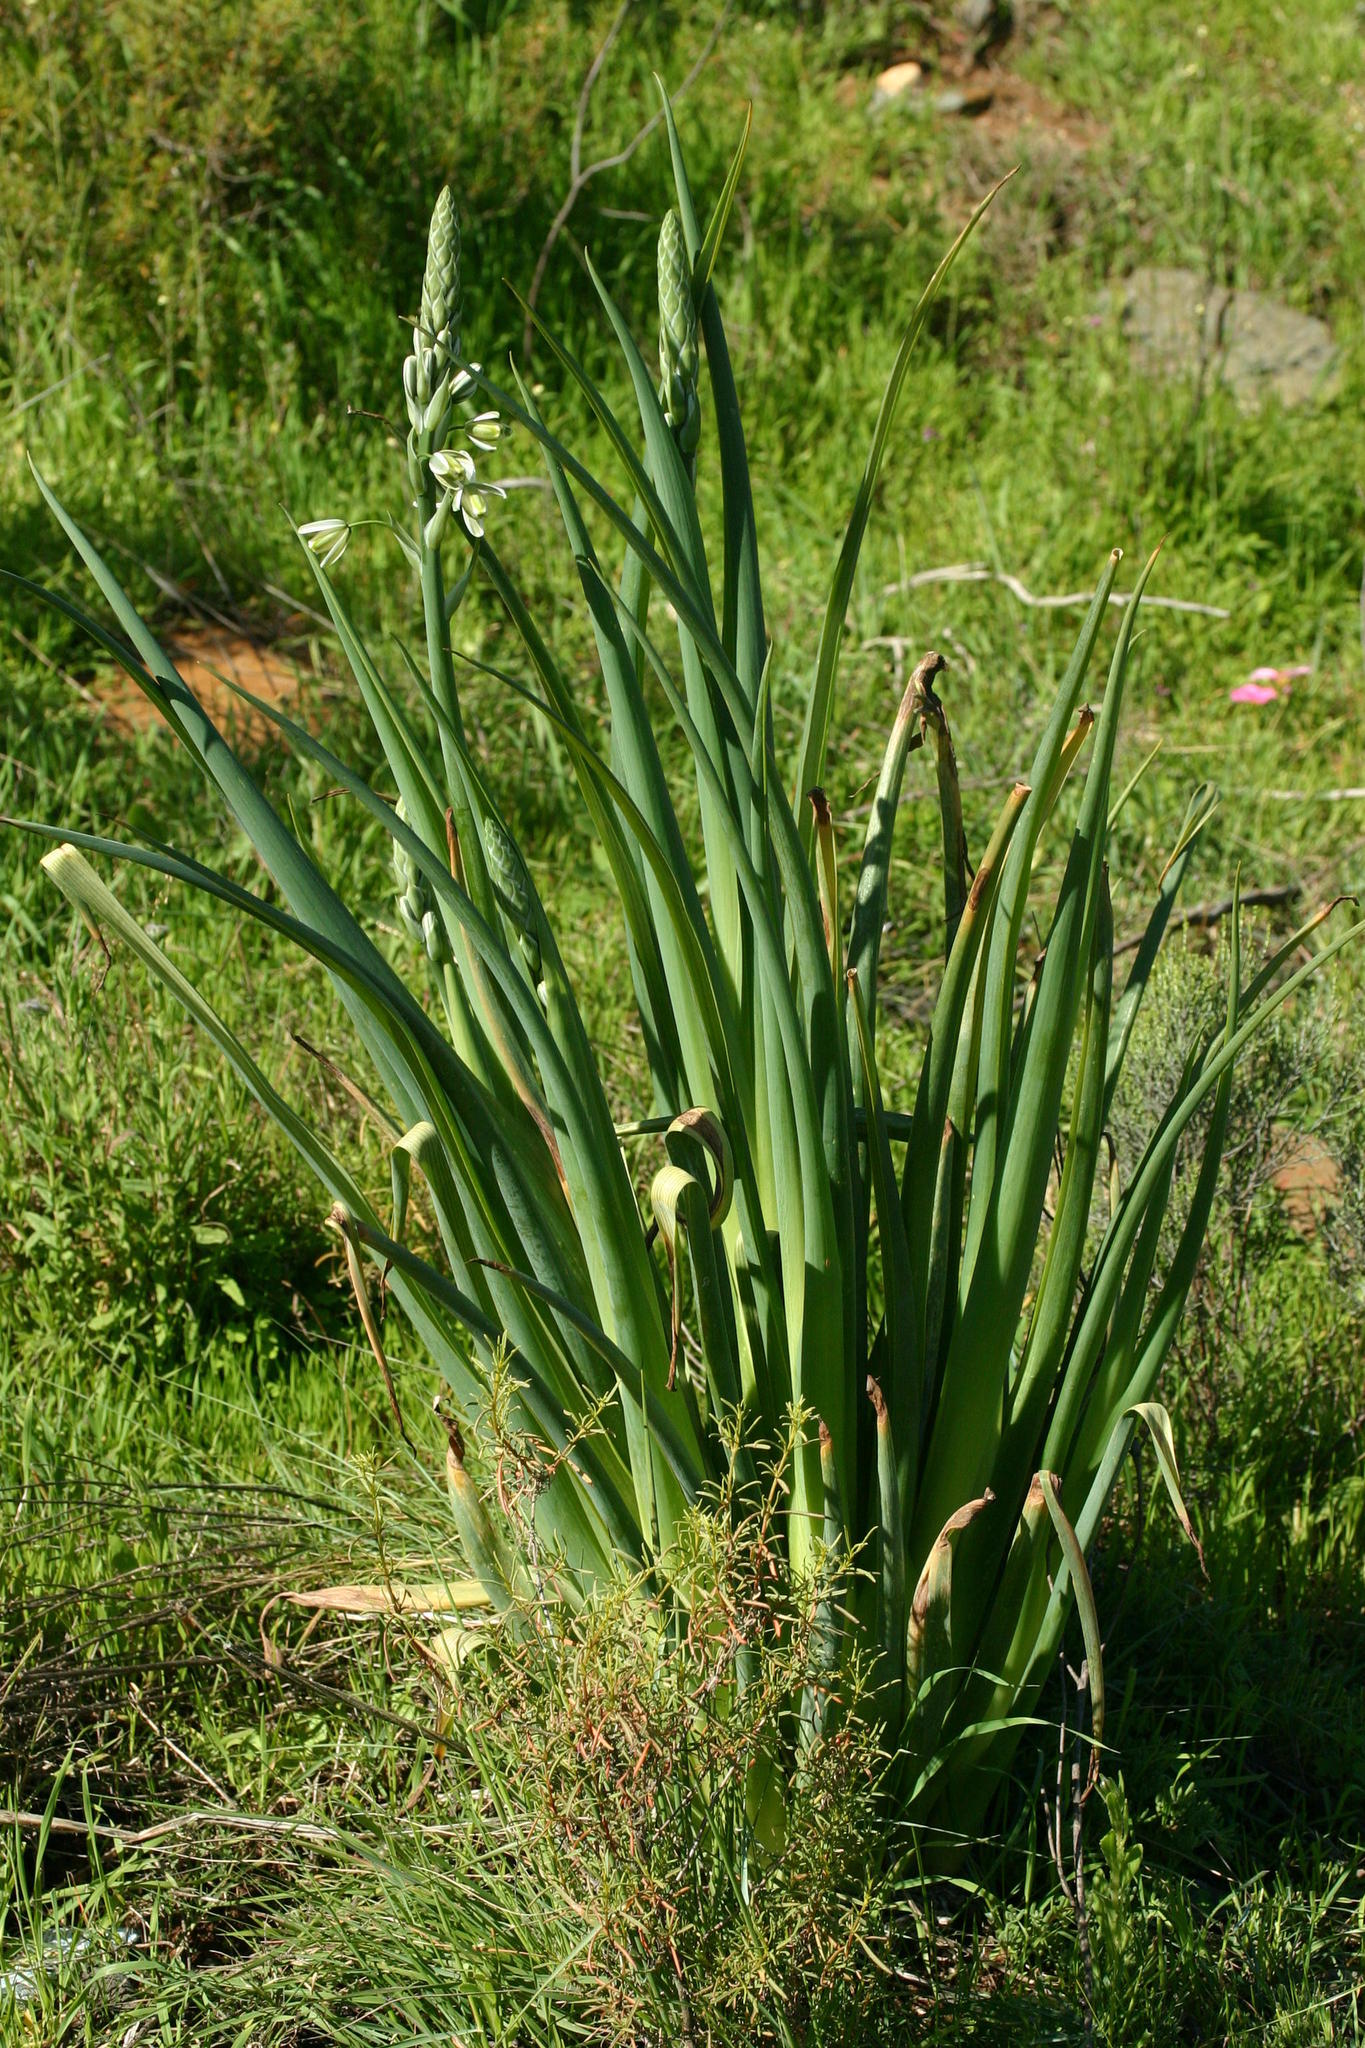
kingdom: Plantae
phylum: Tracheophyta
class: Liliopsida
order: Asparagales
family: Asparagaceae
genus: Albuca
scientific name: Albuca canadensis
